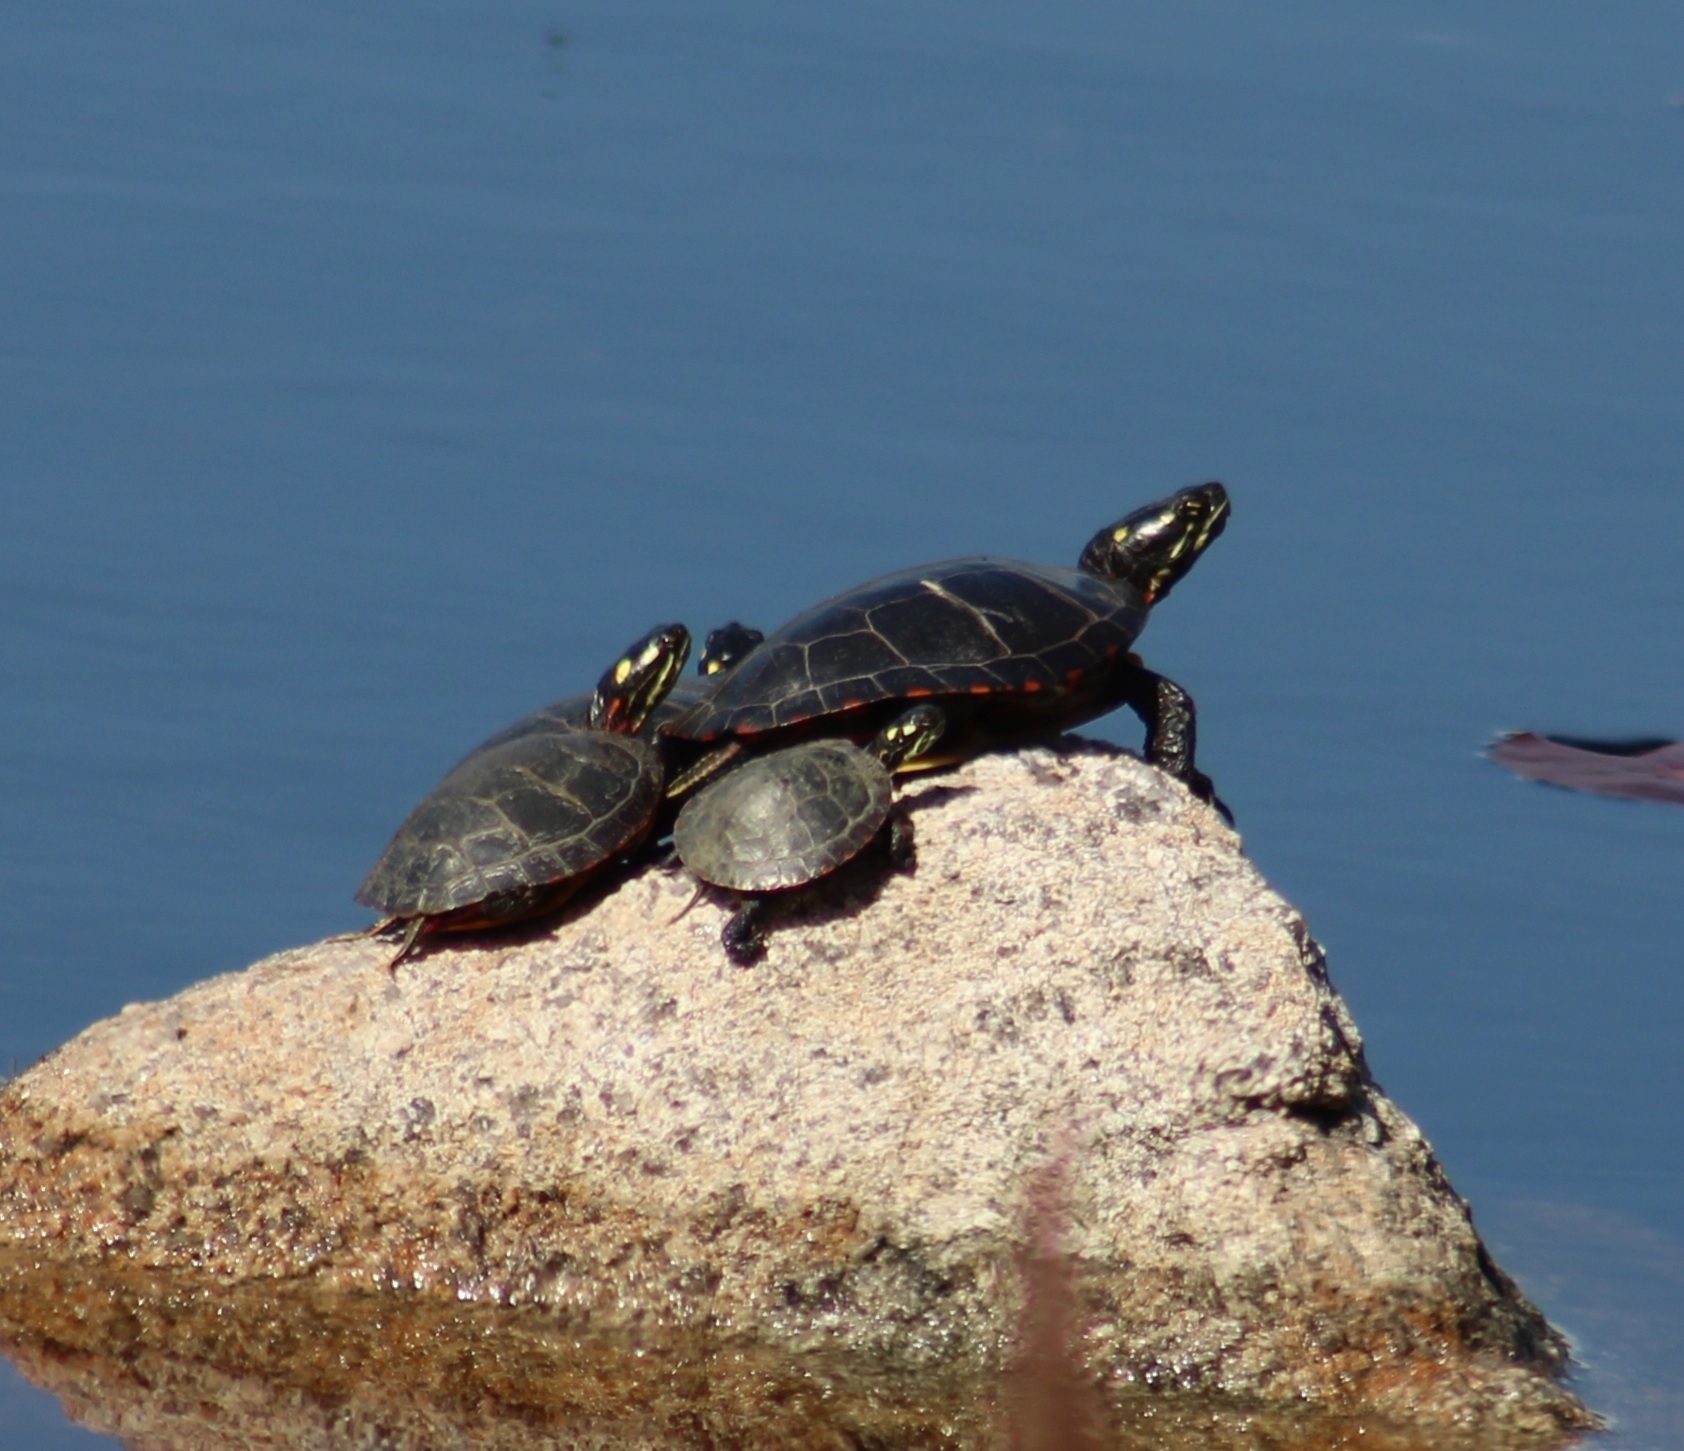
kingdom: Animalia
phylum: Chordata
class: Testudines
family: Emydidae
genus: Chrysemys
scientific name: Chrysemys picta
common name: Painted turtle
